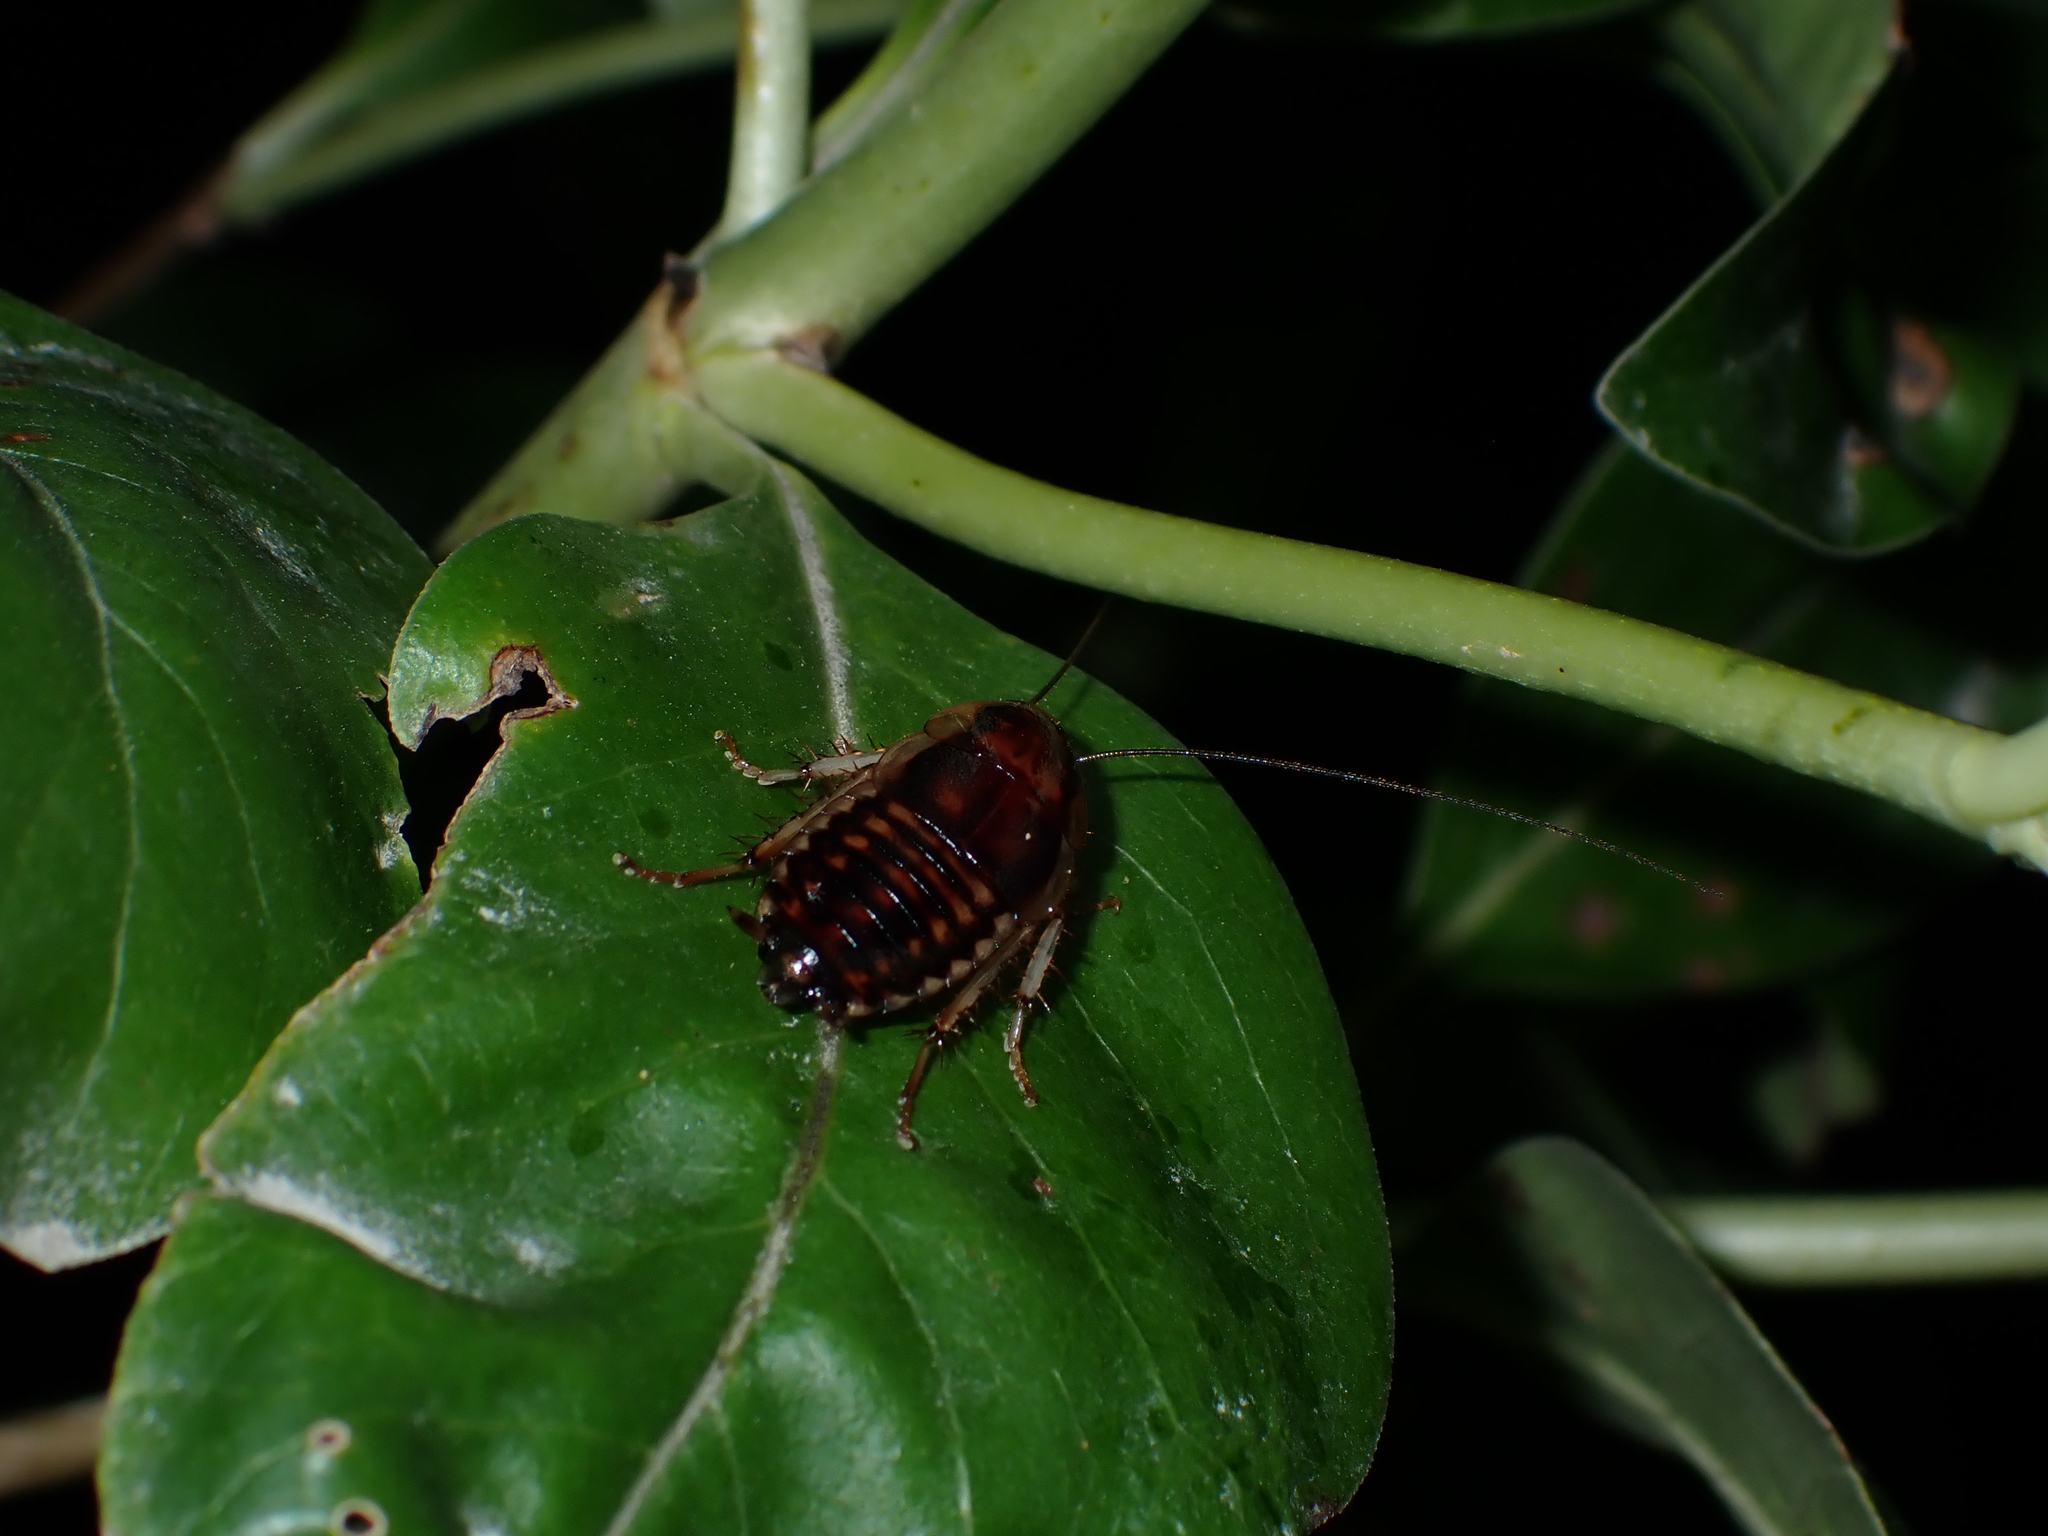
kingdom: Animalia
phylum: Arthropoda
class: Insecta
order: Blattodea
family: Blattidae
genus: Celatoblatta
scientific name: Celatoblatta undulivitta
